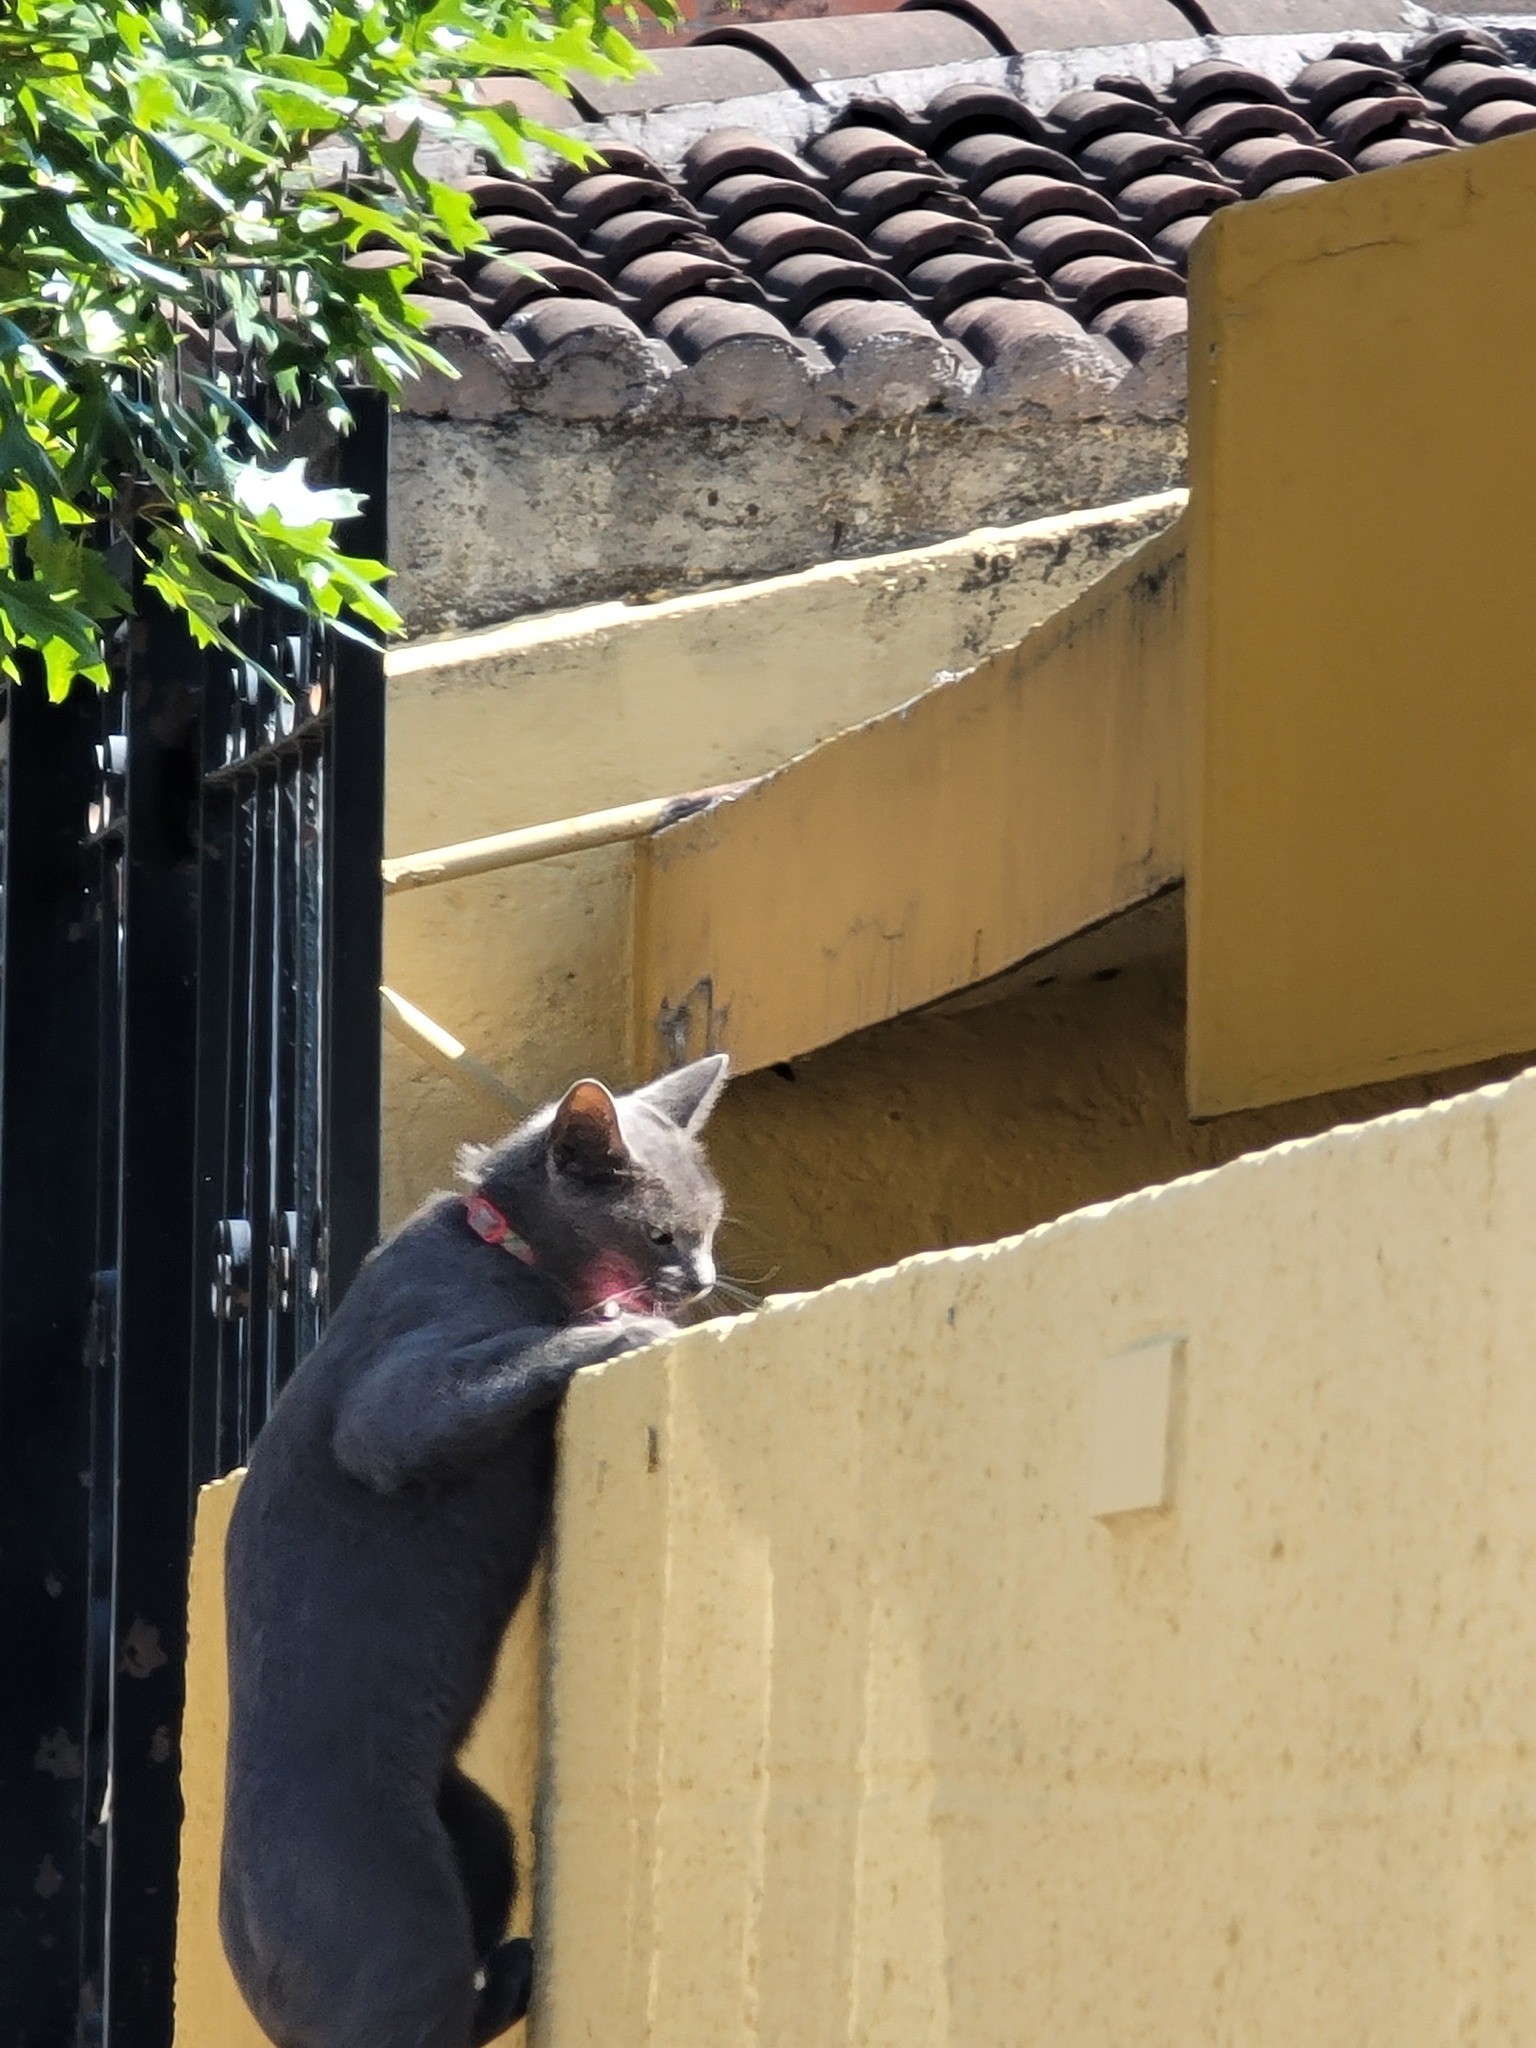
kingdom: Animalia
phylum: Chordata
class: Mammalia
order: Carnivora
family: Felidae
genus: Felis
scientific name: Felis catus
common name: Domestic cat
